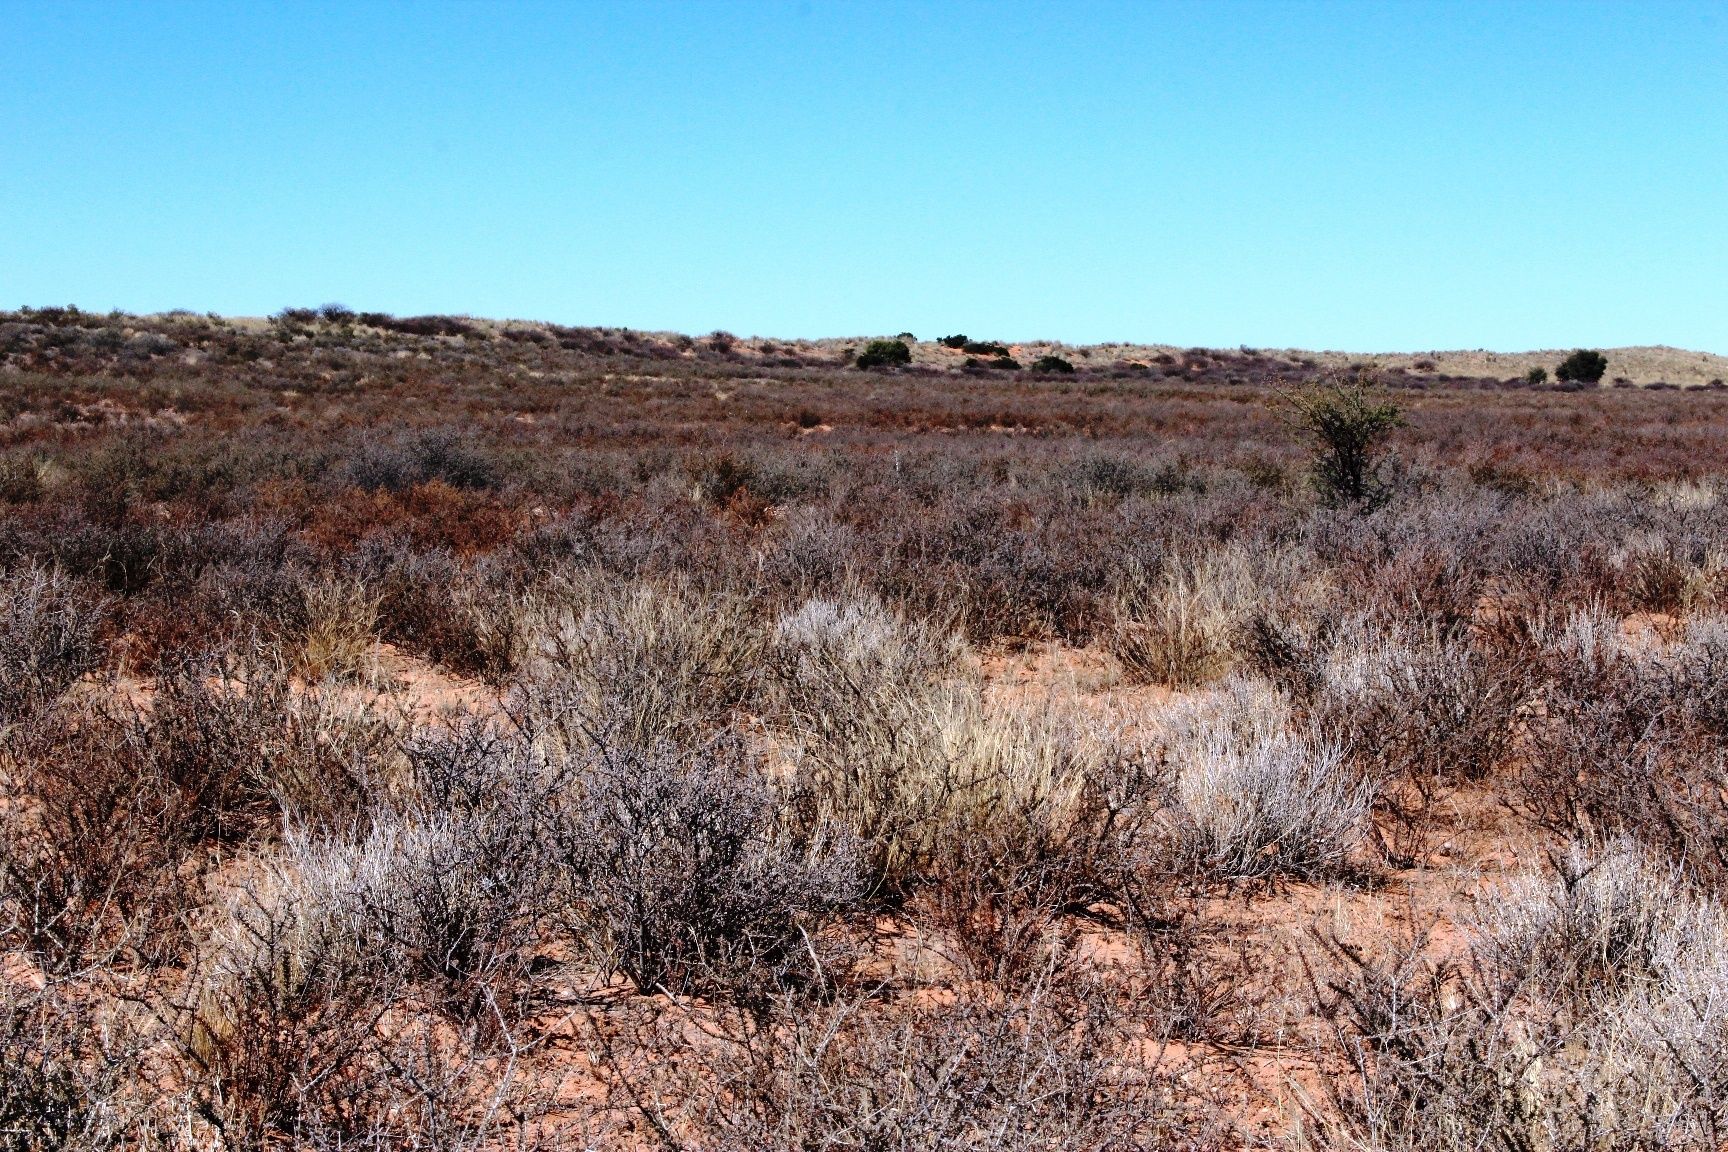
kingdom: Plantae
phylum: Tracheophyta
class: Magnoliopsida
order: Lamiales
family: Bignoniaceae
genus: Rhigozum
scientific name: Rhigozum trichotomum
